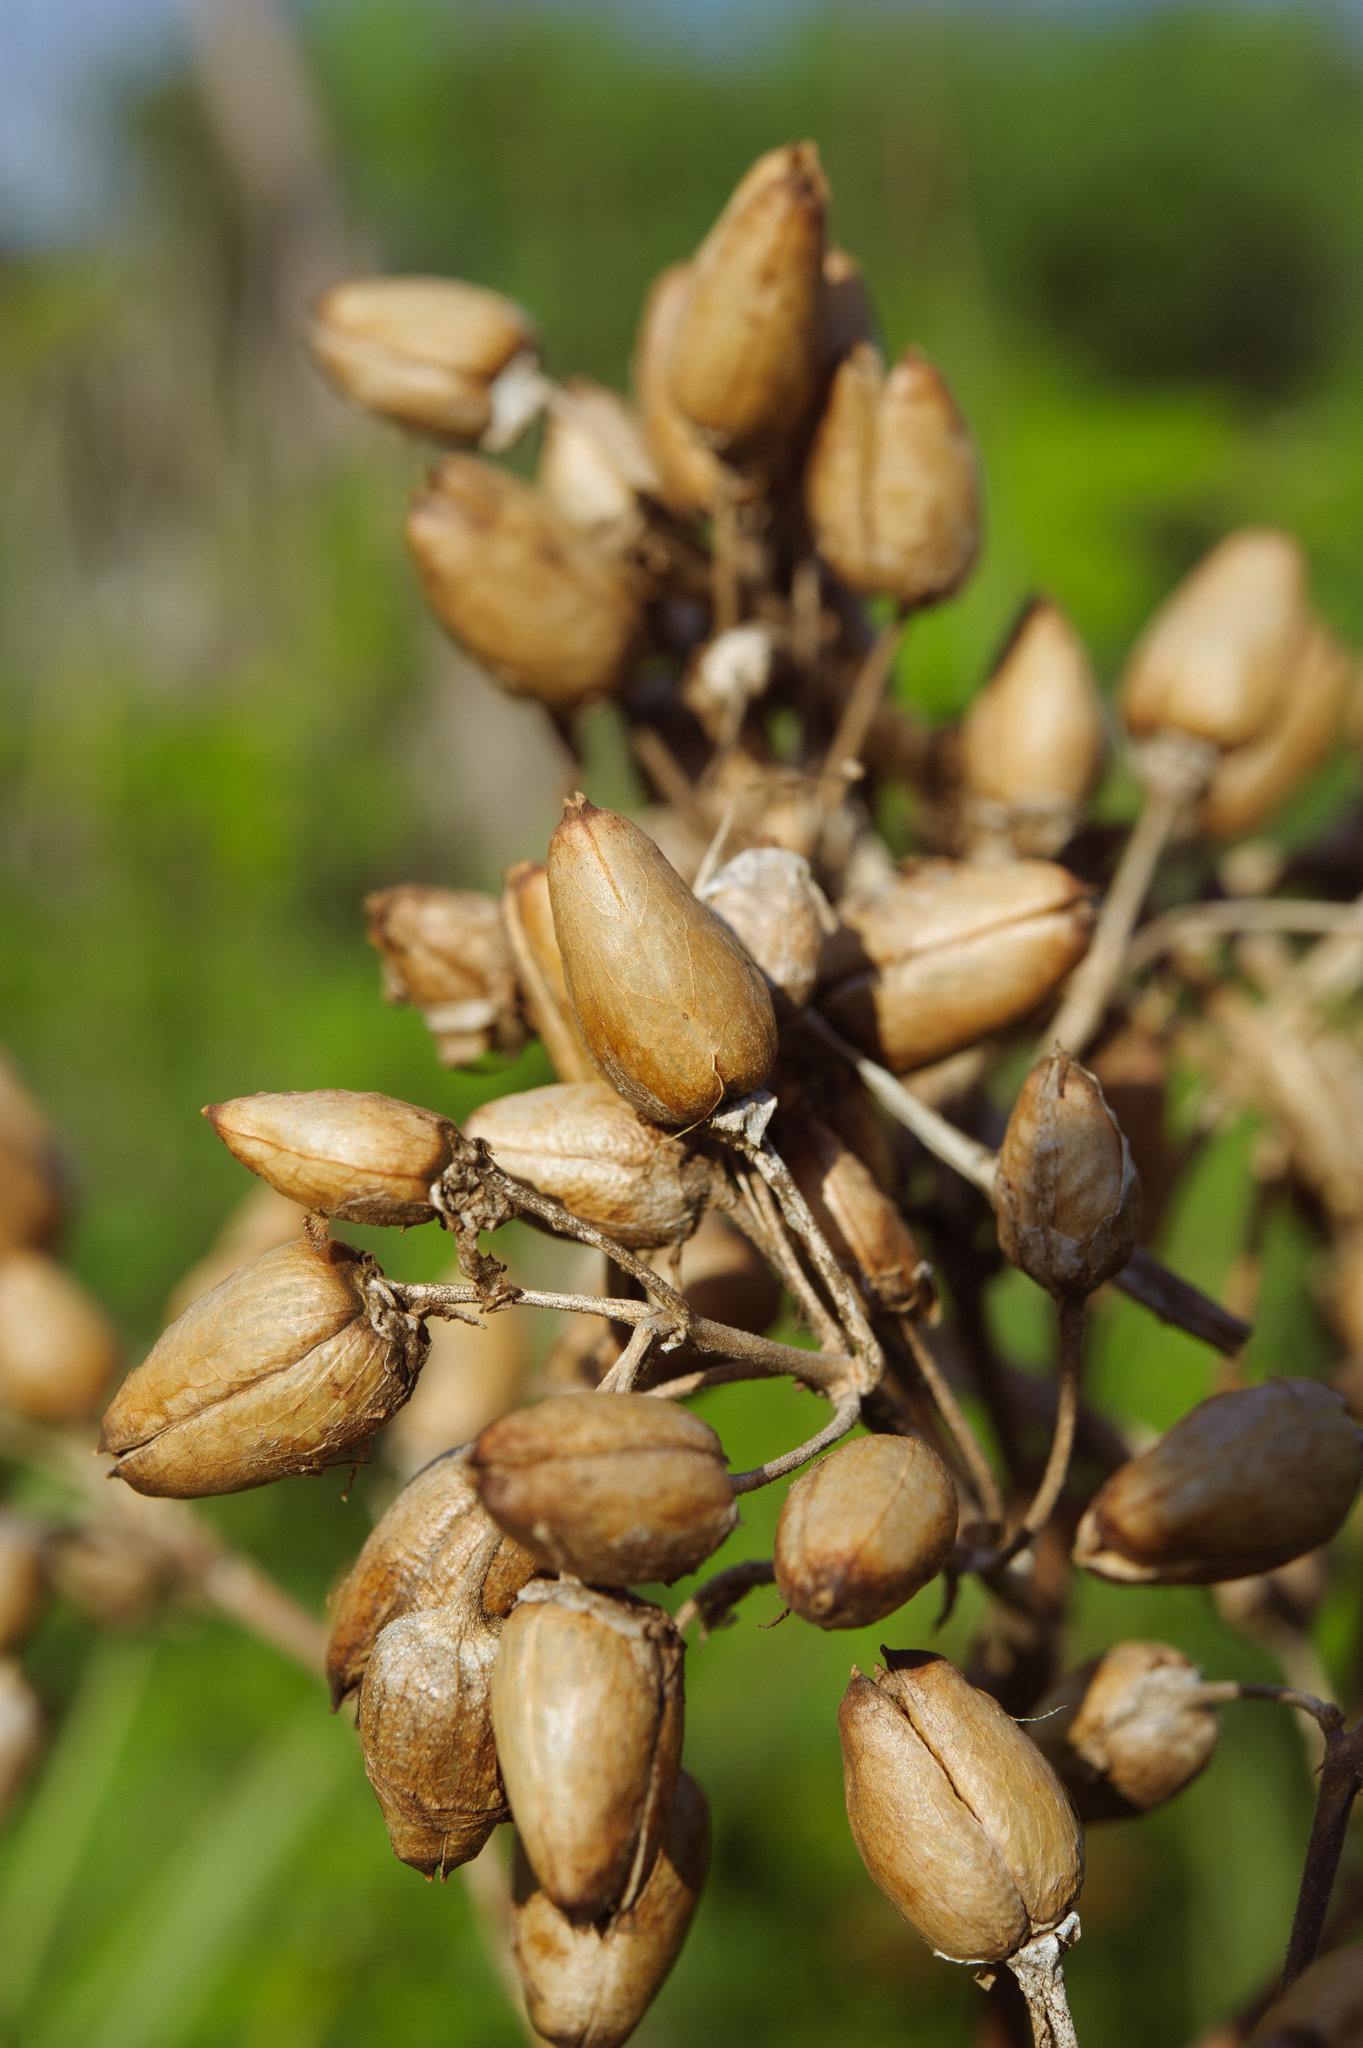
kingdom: Plantae
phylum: Tracheophyta
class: Magnoliopsida
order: Solanales
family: Solanaceae
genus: Nicotiana
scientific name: Nicotiana tabacum
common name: Tobacco
